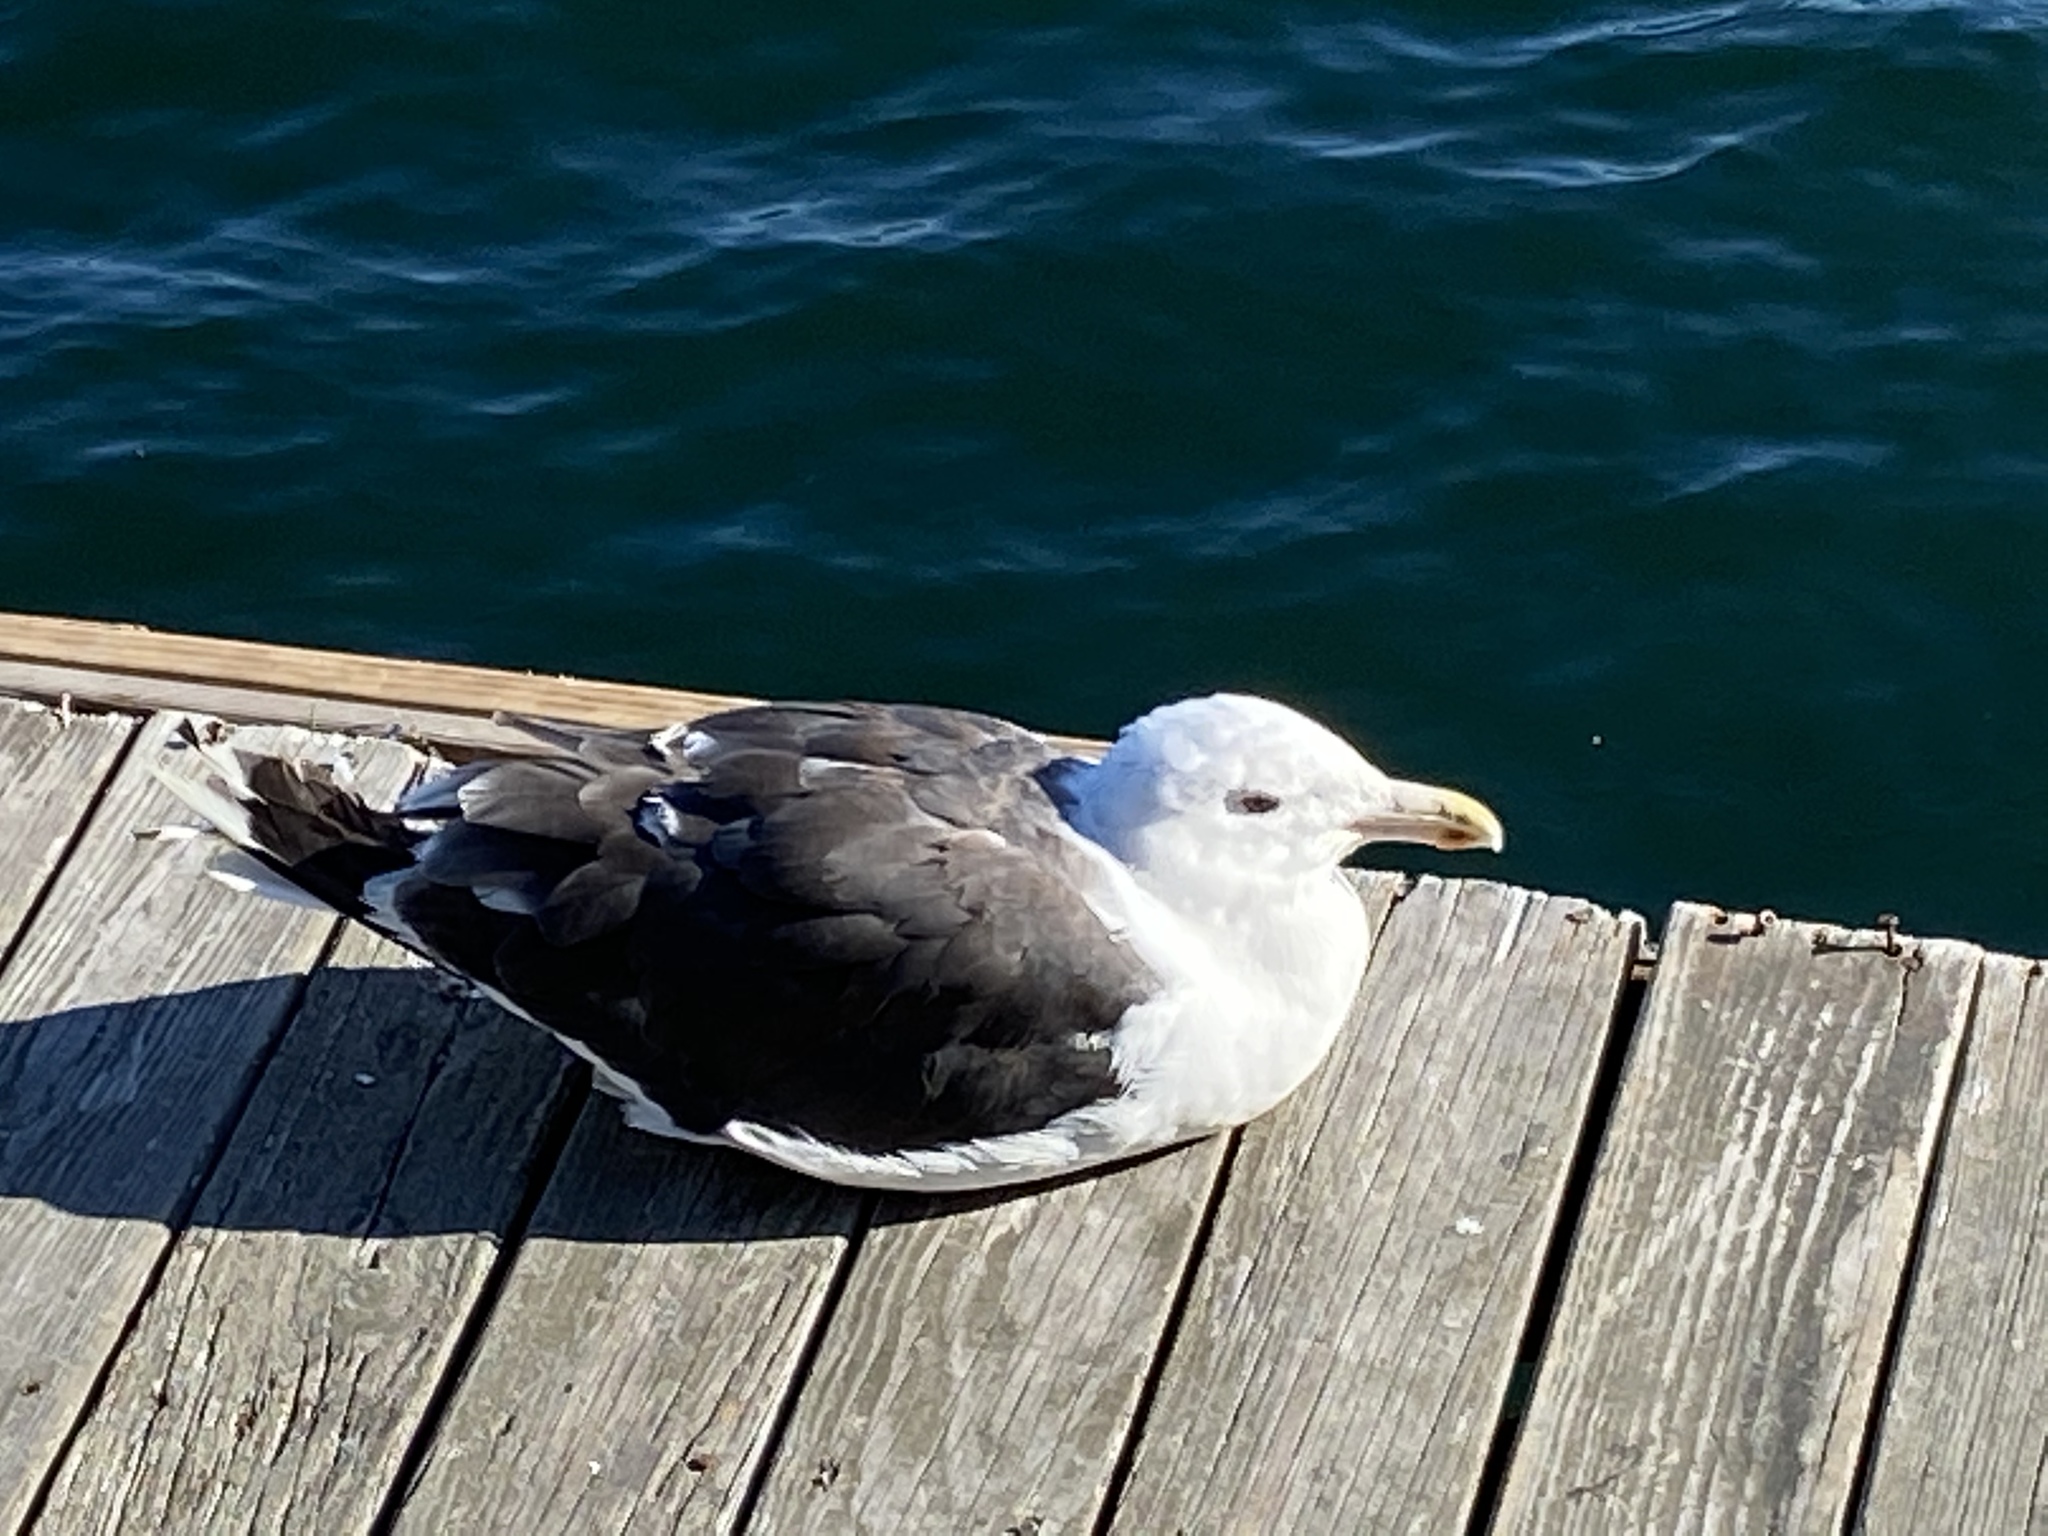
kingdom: Animalia
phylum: Chordata
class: Aves
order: Charadriiformes
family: Laridae
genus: Larus
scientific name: Larus marinus
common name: Great black-backed gull
